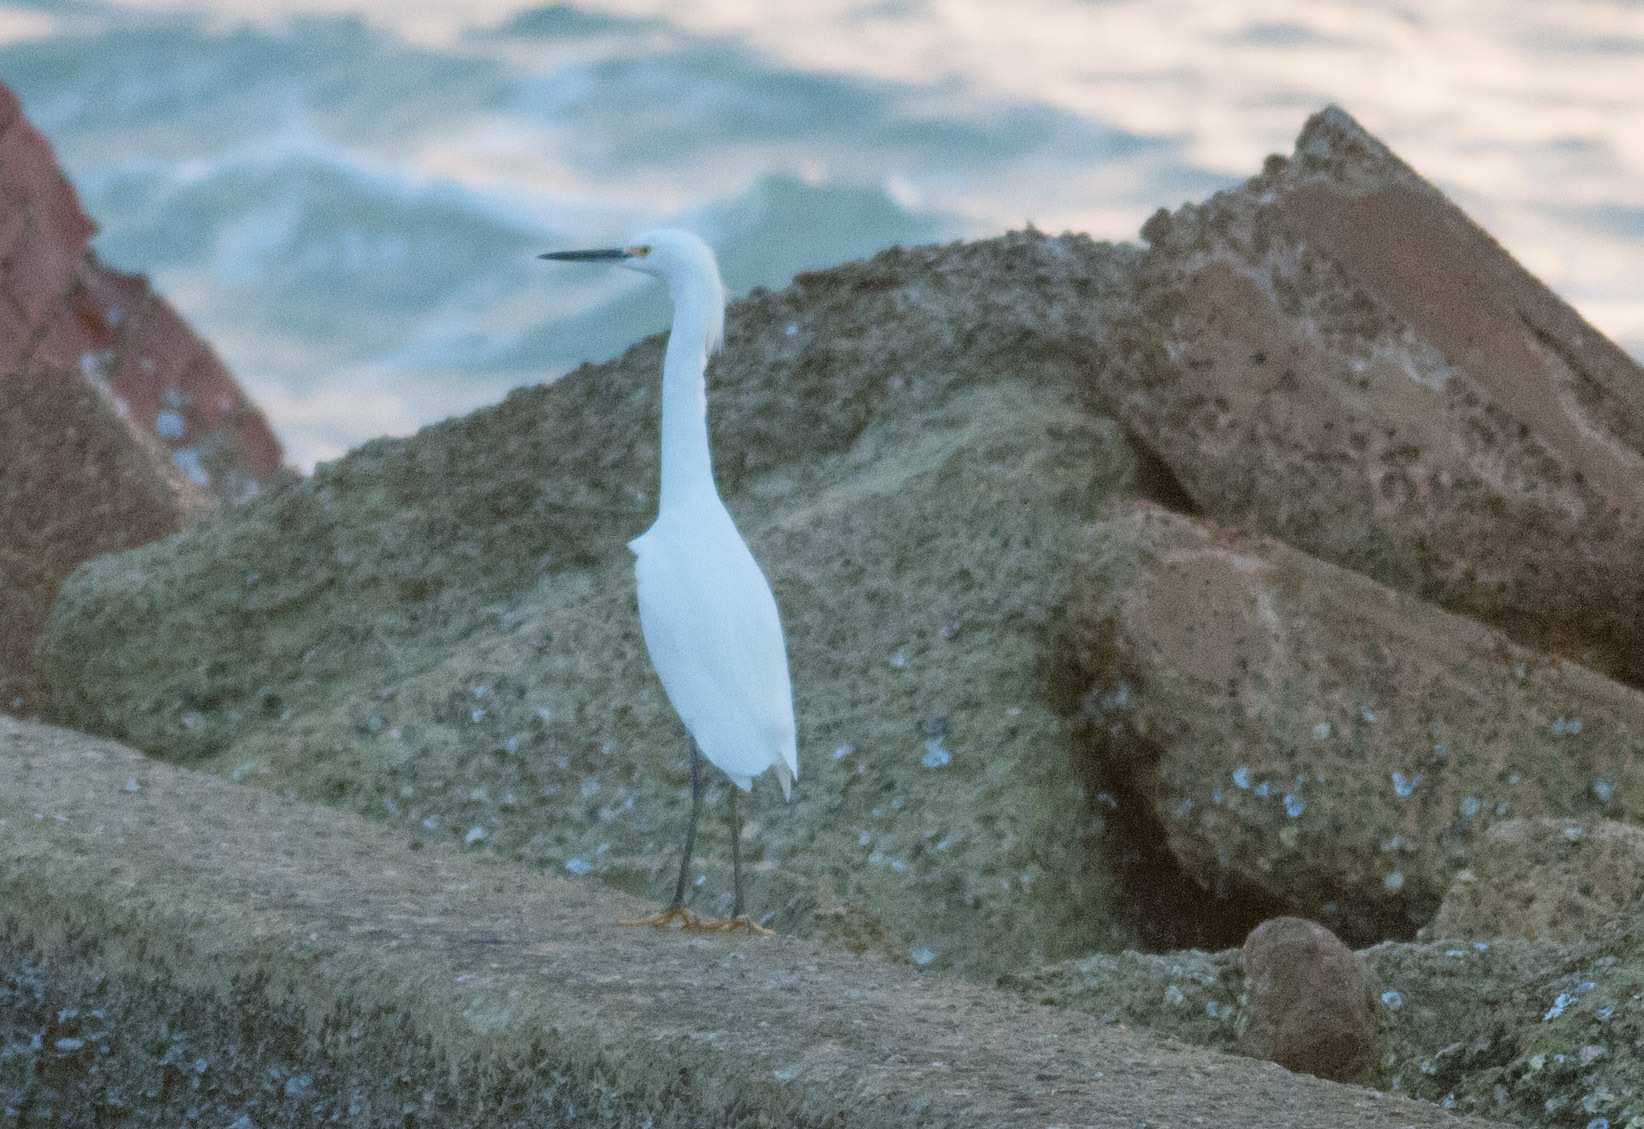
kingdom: Animalia
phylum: Chordata
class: Aves
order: Pelecaniformes
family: Ardeidae
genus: Egretta
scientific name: Egretta thula
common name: Snowy egret
